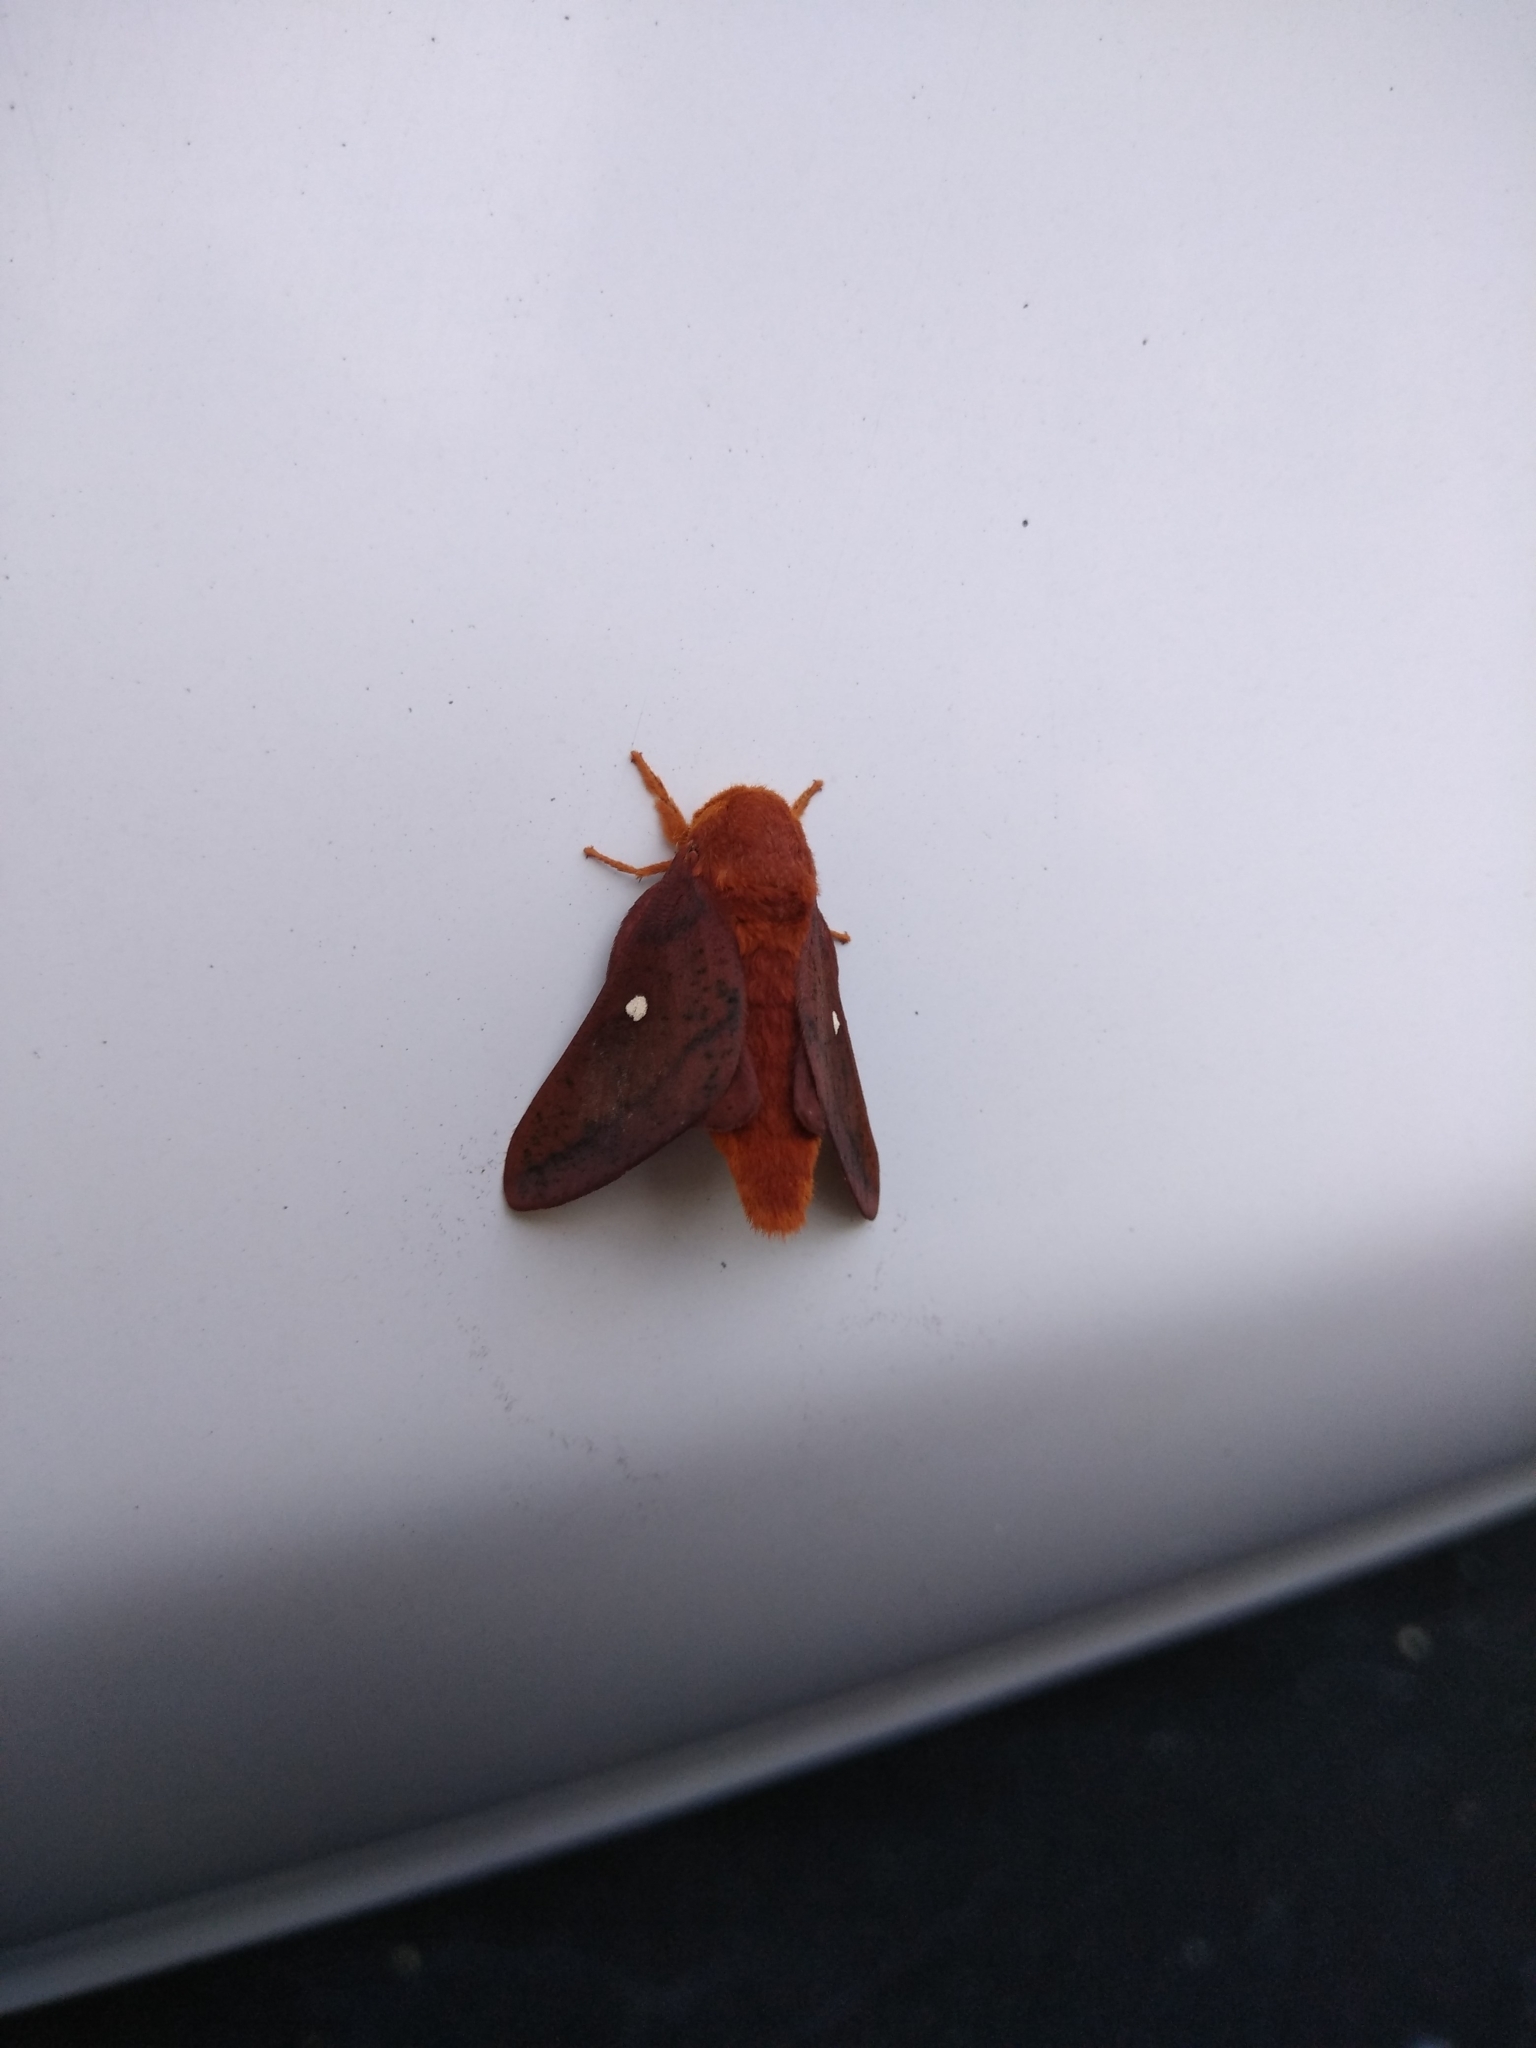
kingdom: Animalia
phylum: Arthropoda
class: Insecta
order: Lepidoptera
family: Saturniidae
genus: Anisota
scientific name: Anisota virginiensis
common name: Pink striped oakworm moth
